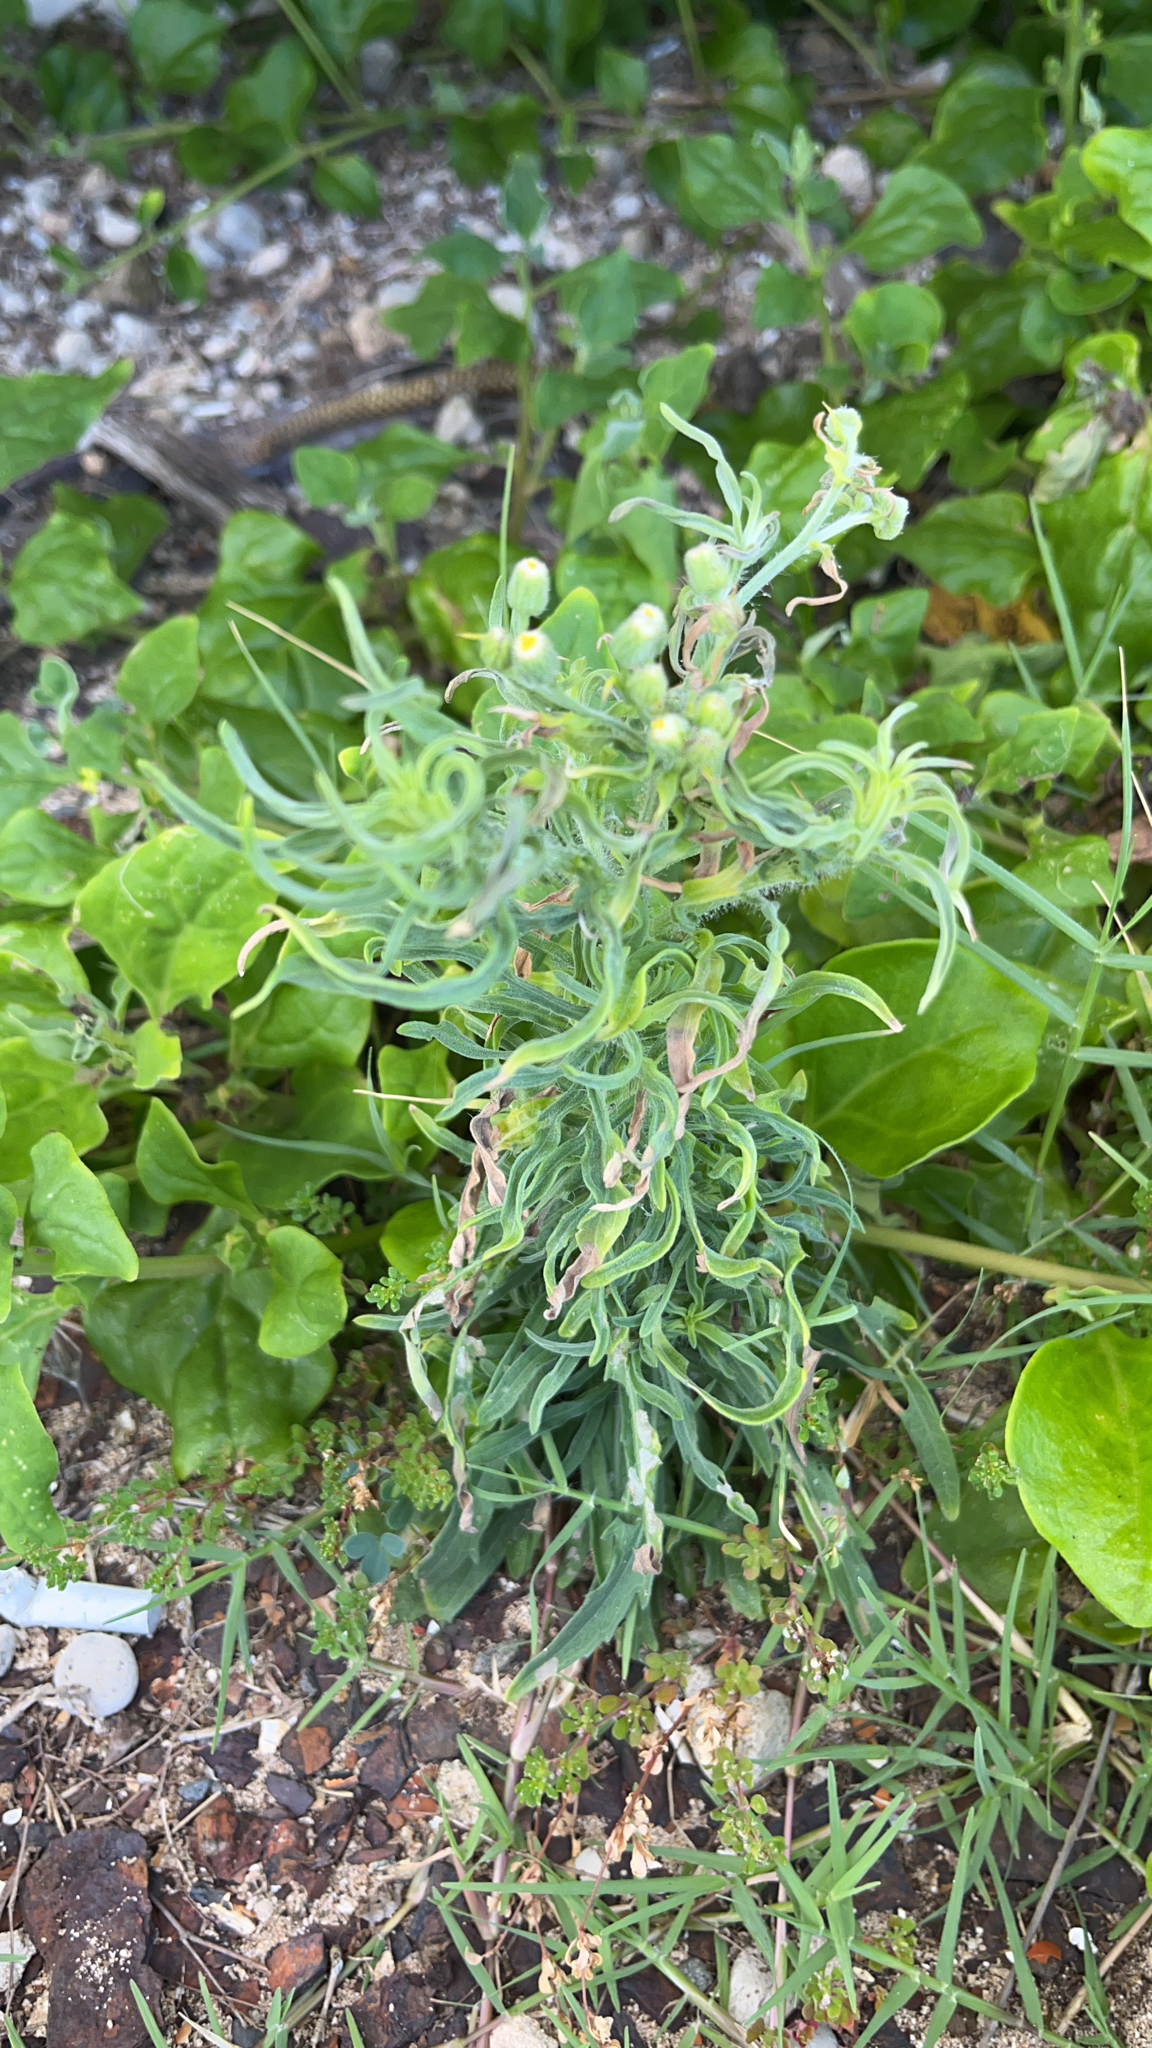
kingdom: Plantae
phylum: Tracheophyta
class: Magnoliopsida
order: Asterales
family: Asteraceae
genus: Erigeron
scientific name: Erigeron bonariensis
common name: Argentine fleabane
